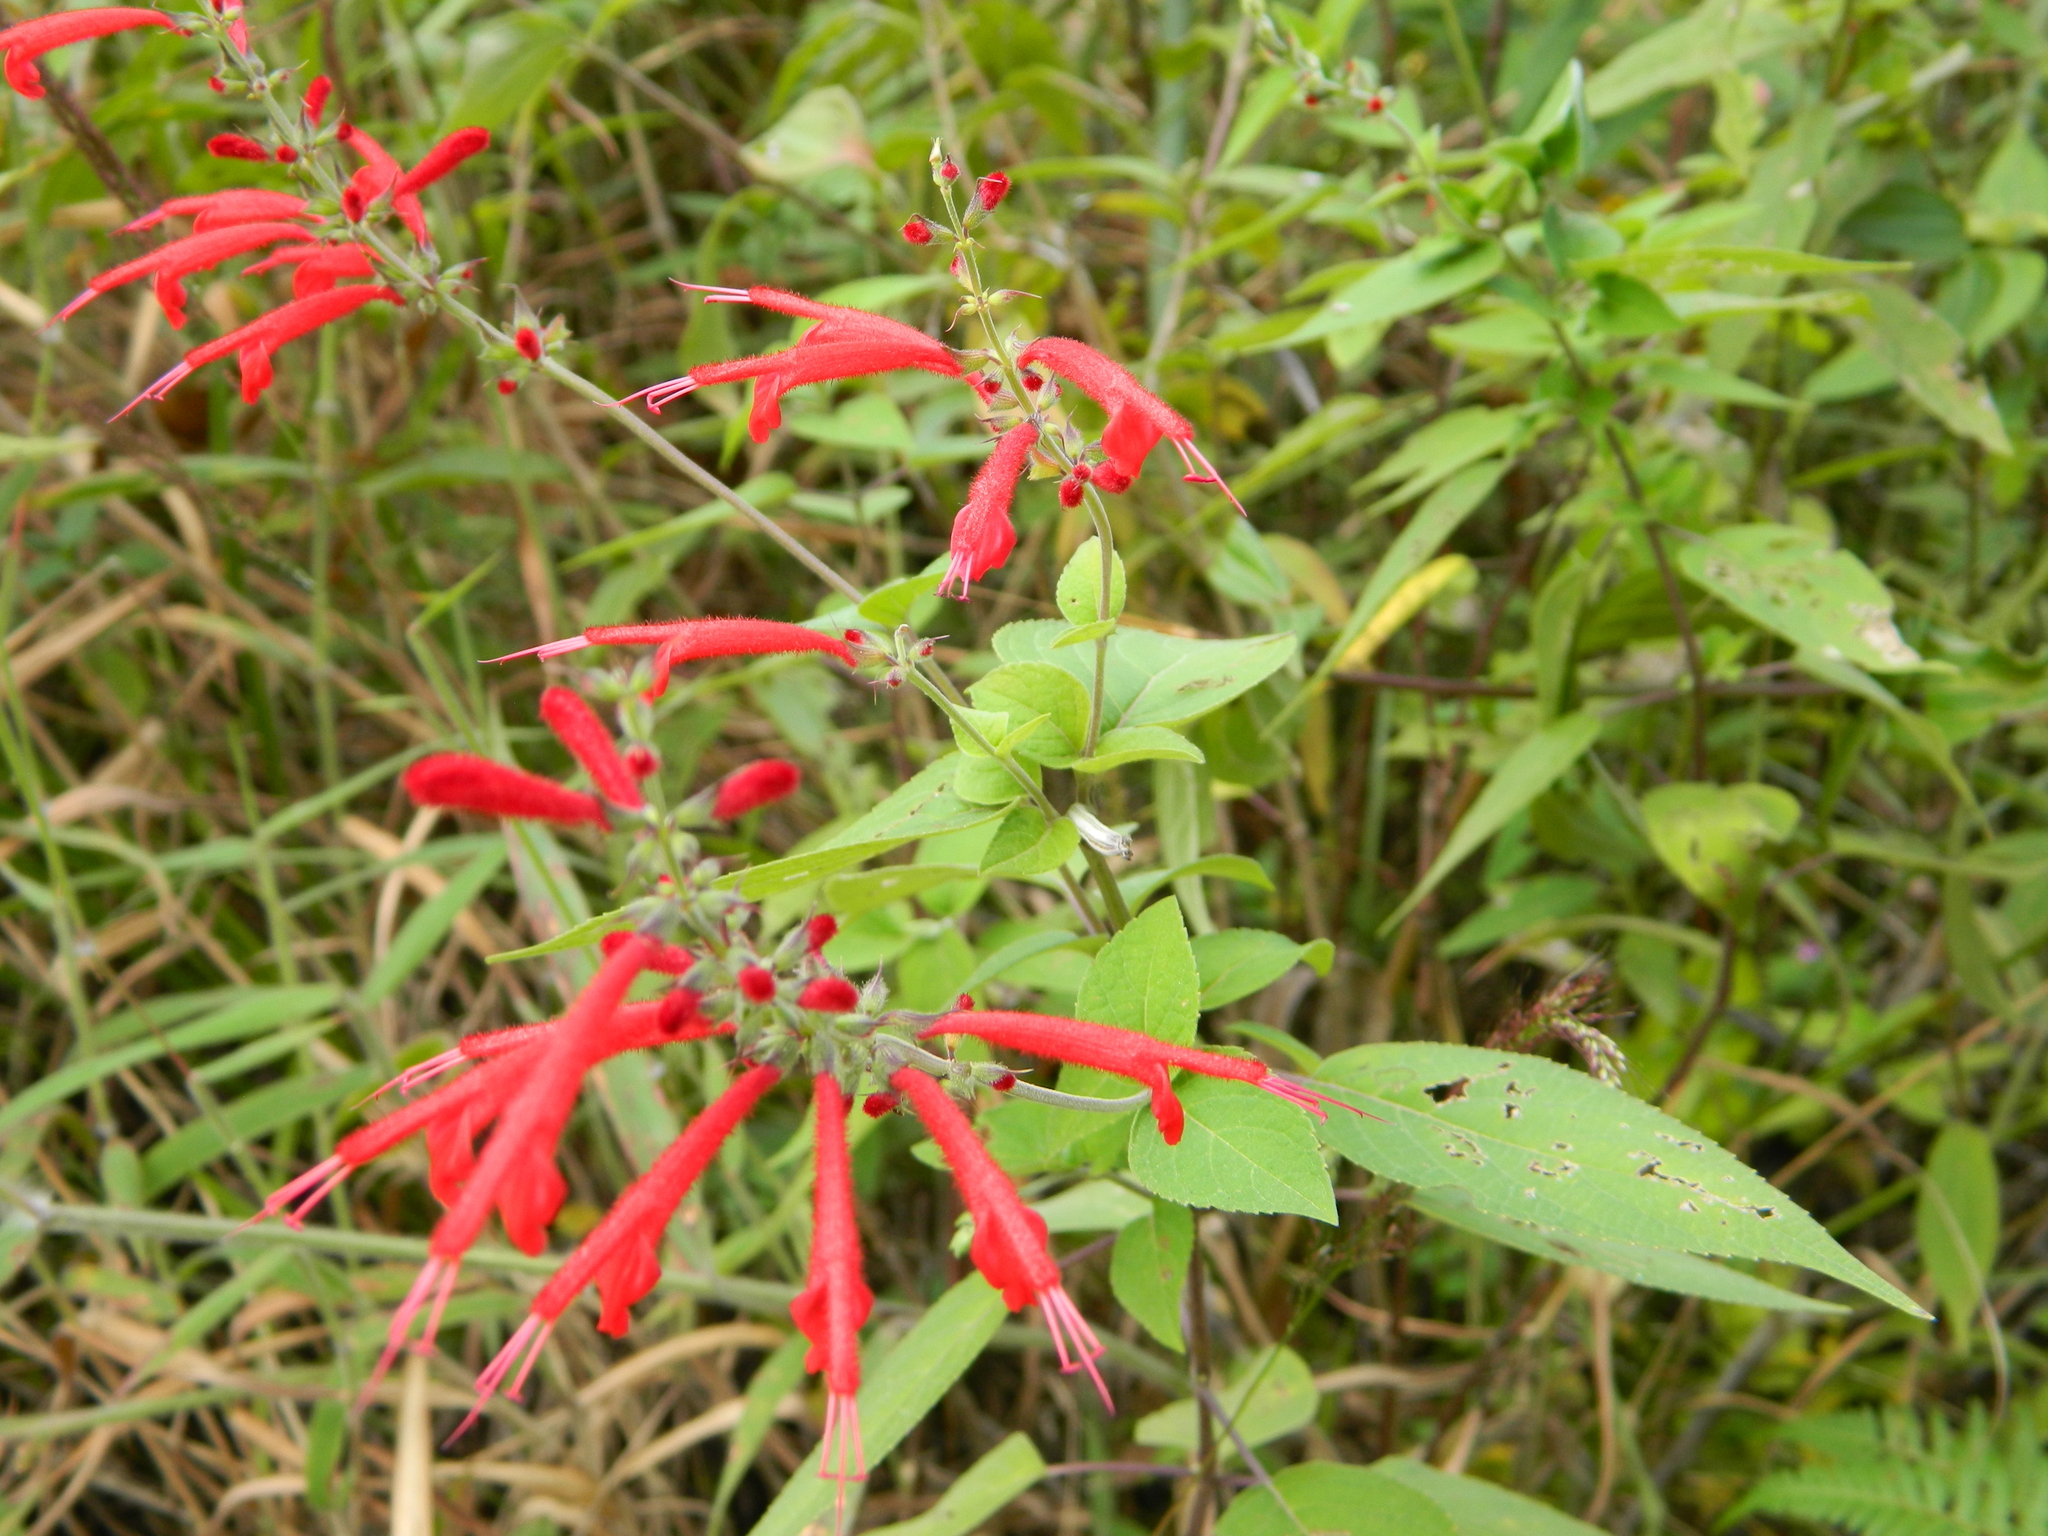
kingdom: Plantae
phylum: Tracheophyta
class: Magnoliopsida
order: Lamiales
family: Lamiaceae
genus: Salvia
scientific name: Salvia cinnabarina
